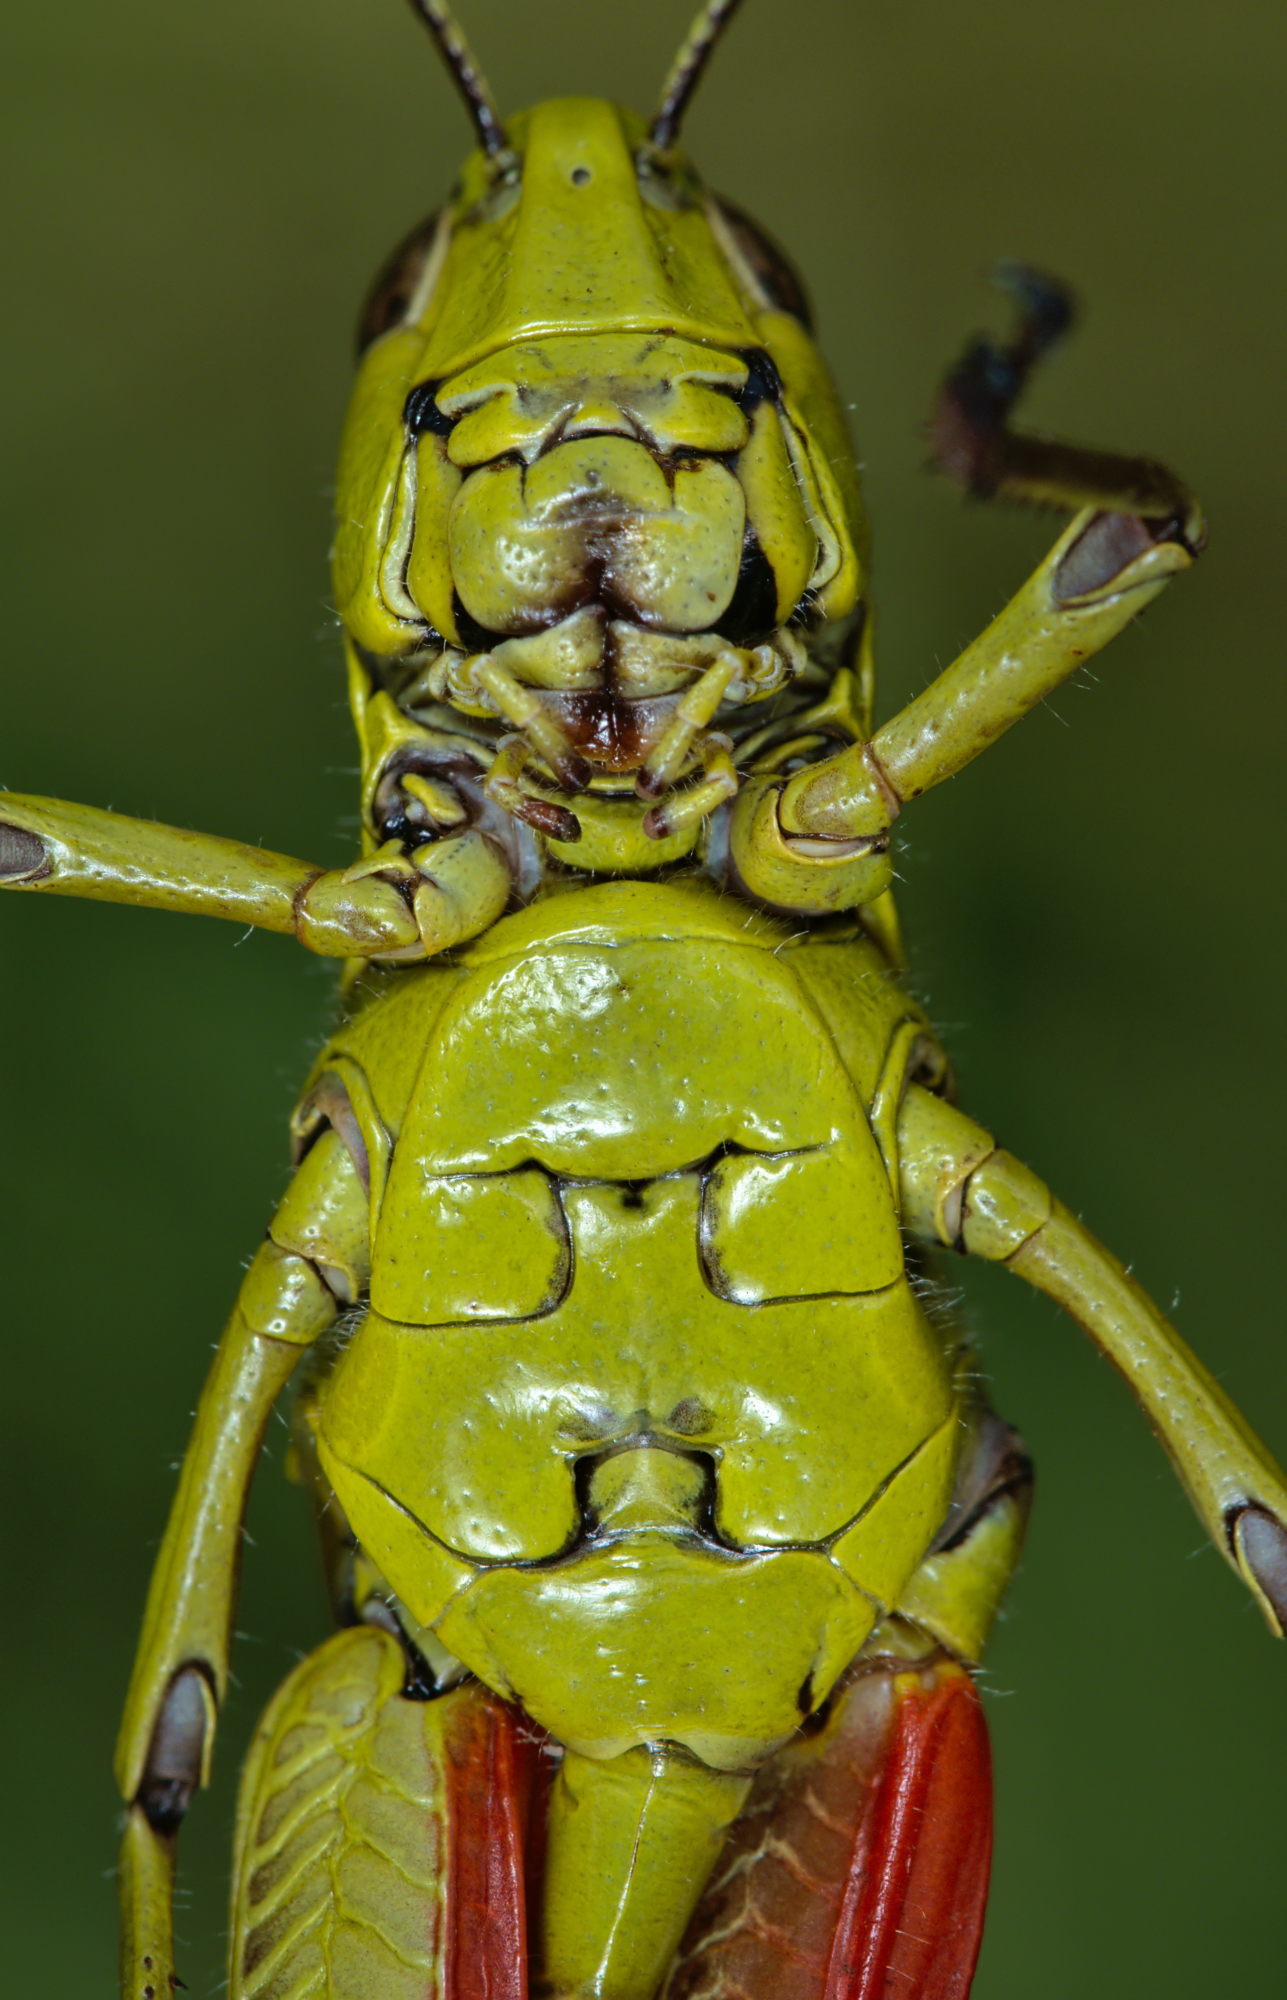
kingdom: Animalia
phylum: Arthropoda
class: Insecta
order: Orthoptera
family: Acrididae
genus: Stethophyma
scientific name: Stethophyma grossum
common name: Large marsh grasshopper
